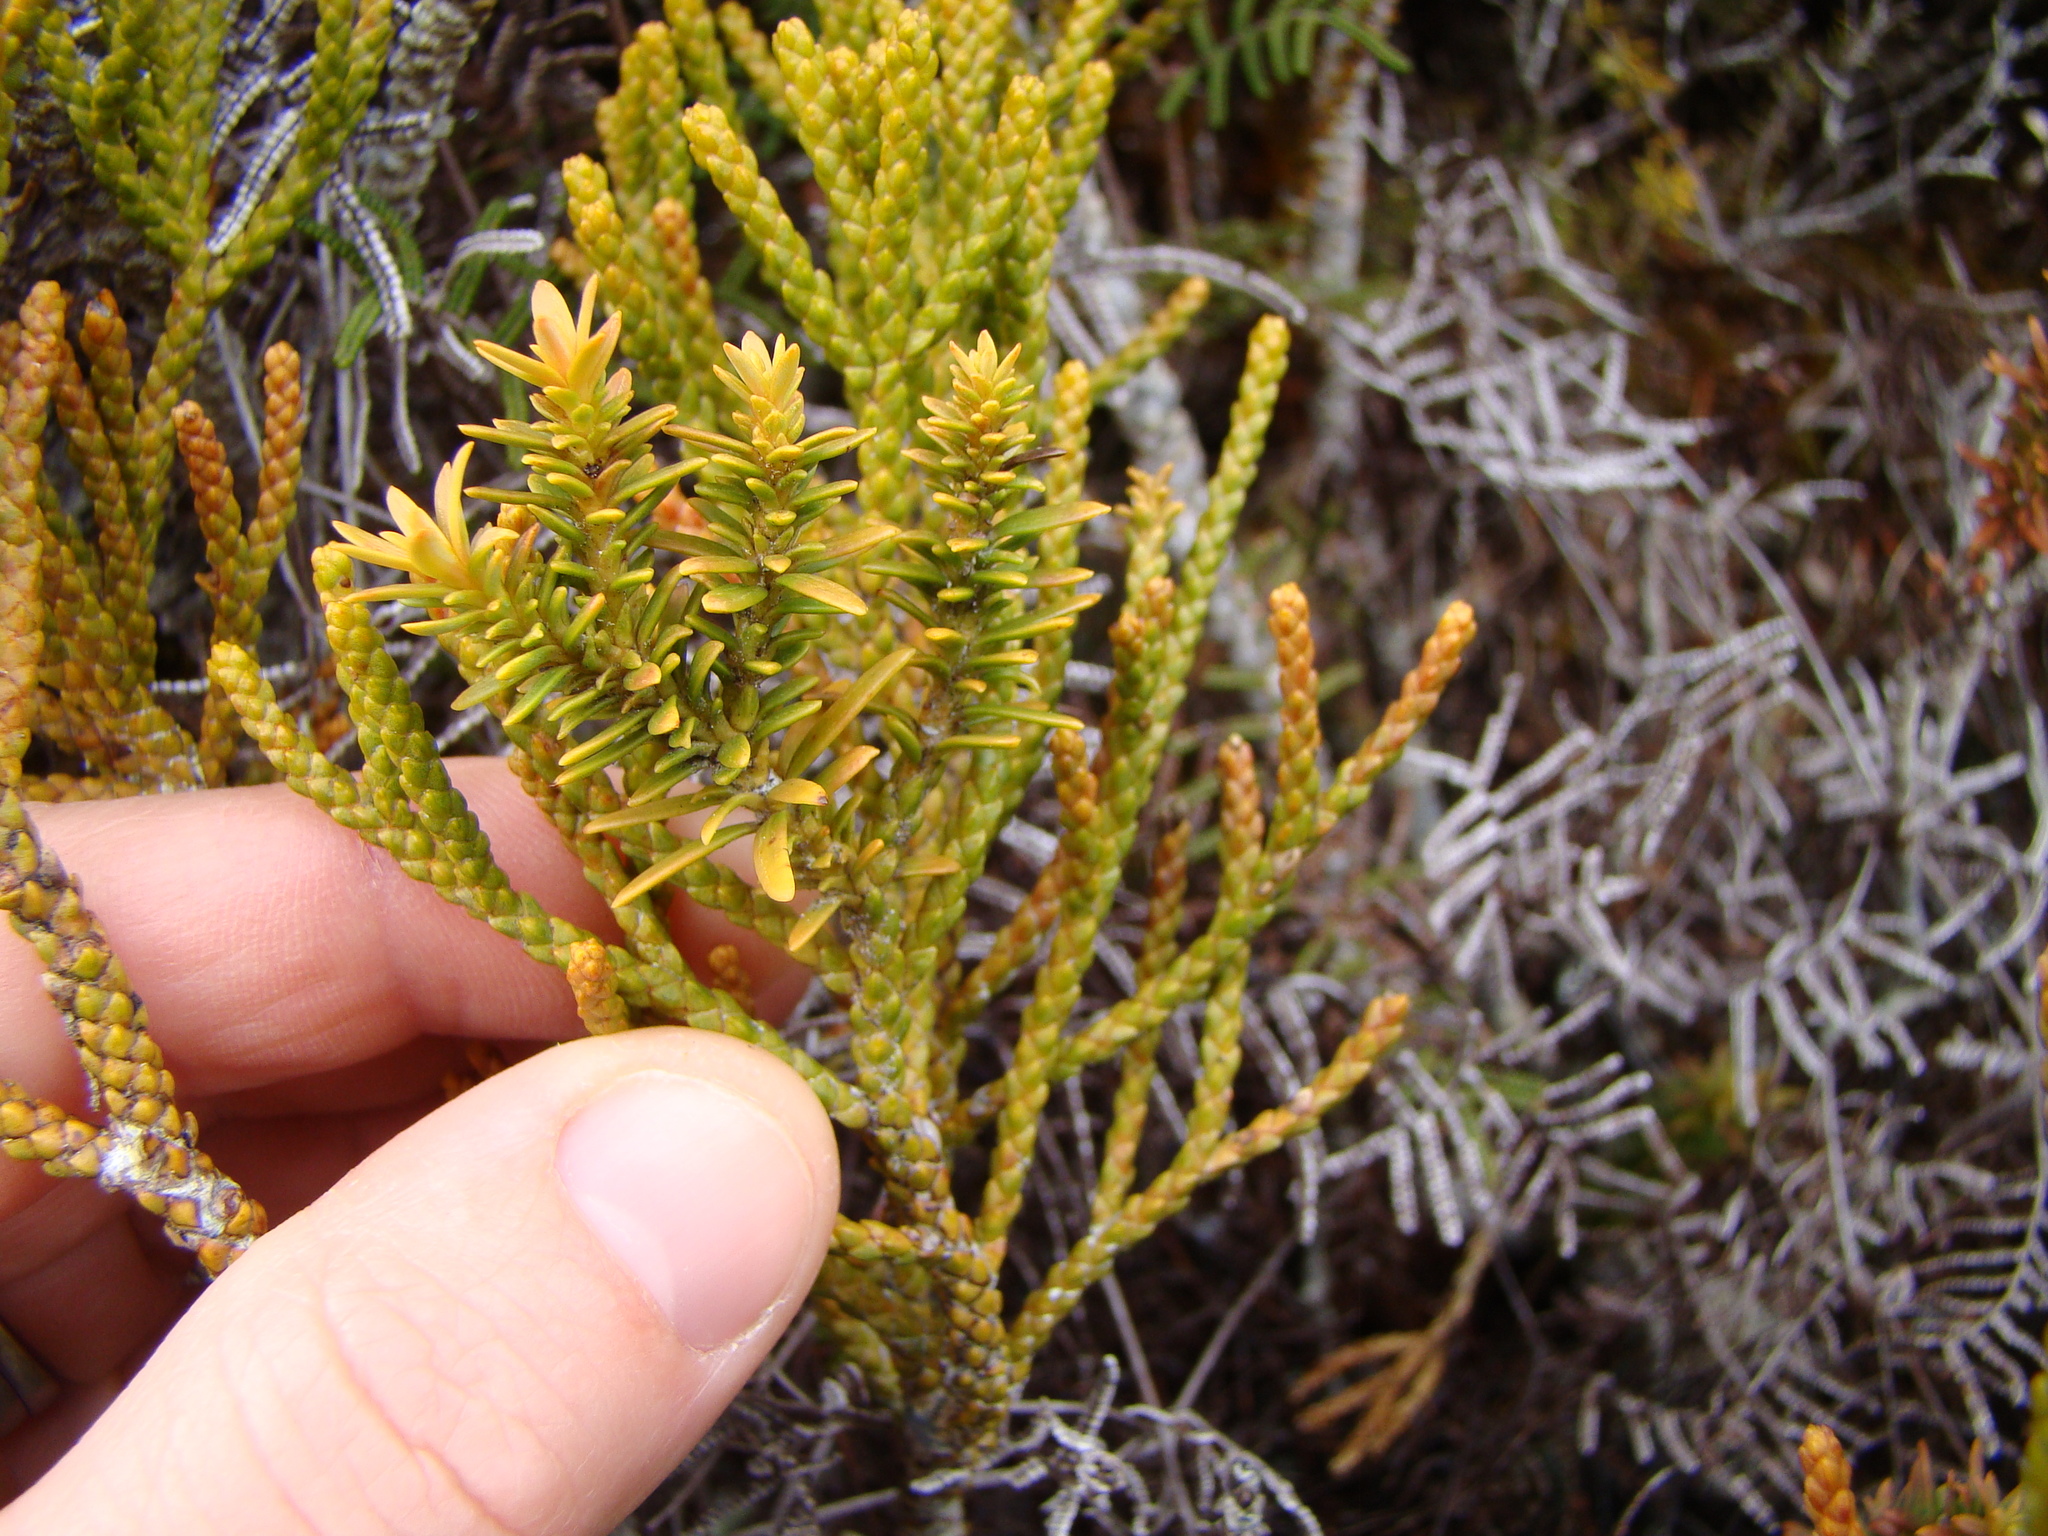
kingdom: Plantae
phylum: Tracheophyta
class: Pinopsida
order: Pinales
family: Podocarpaceae
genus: Halocarpus
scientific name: Halocarpus biformis
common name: Alpine tarwood
